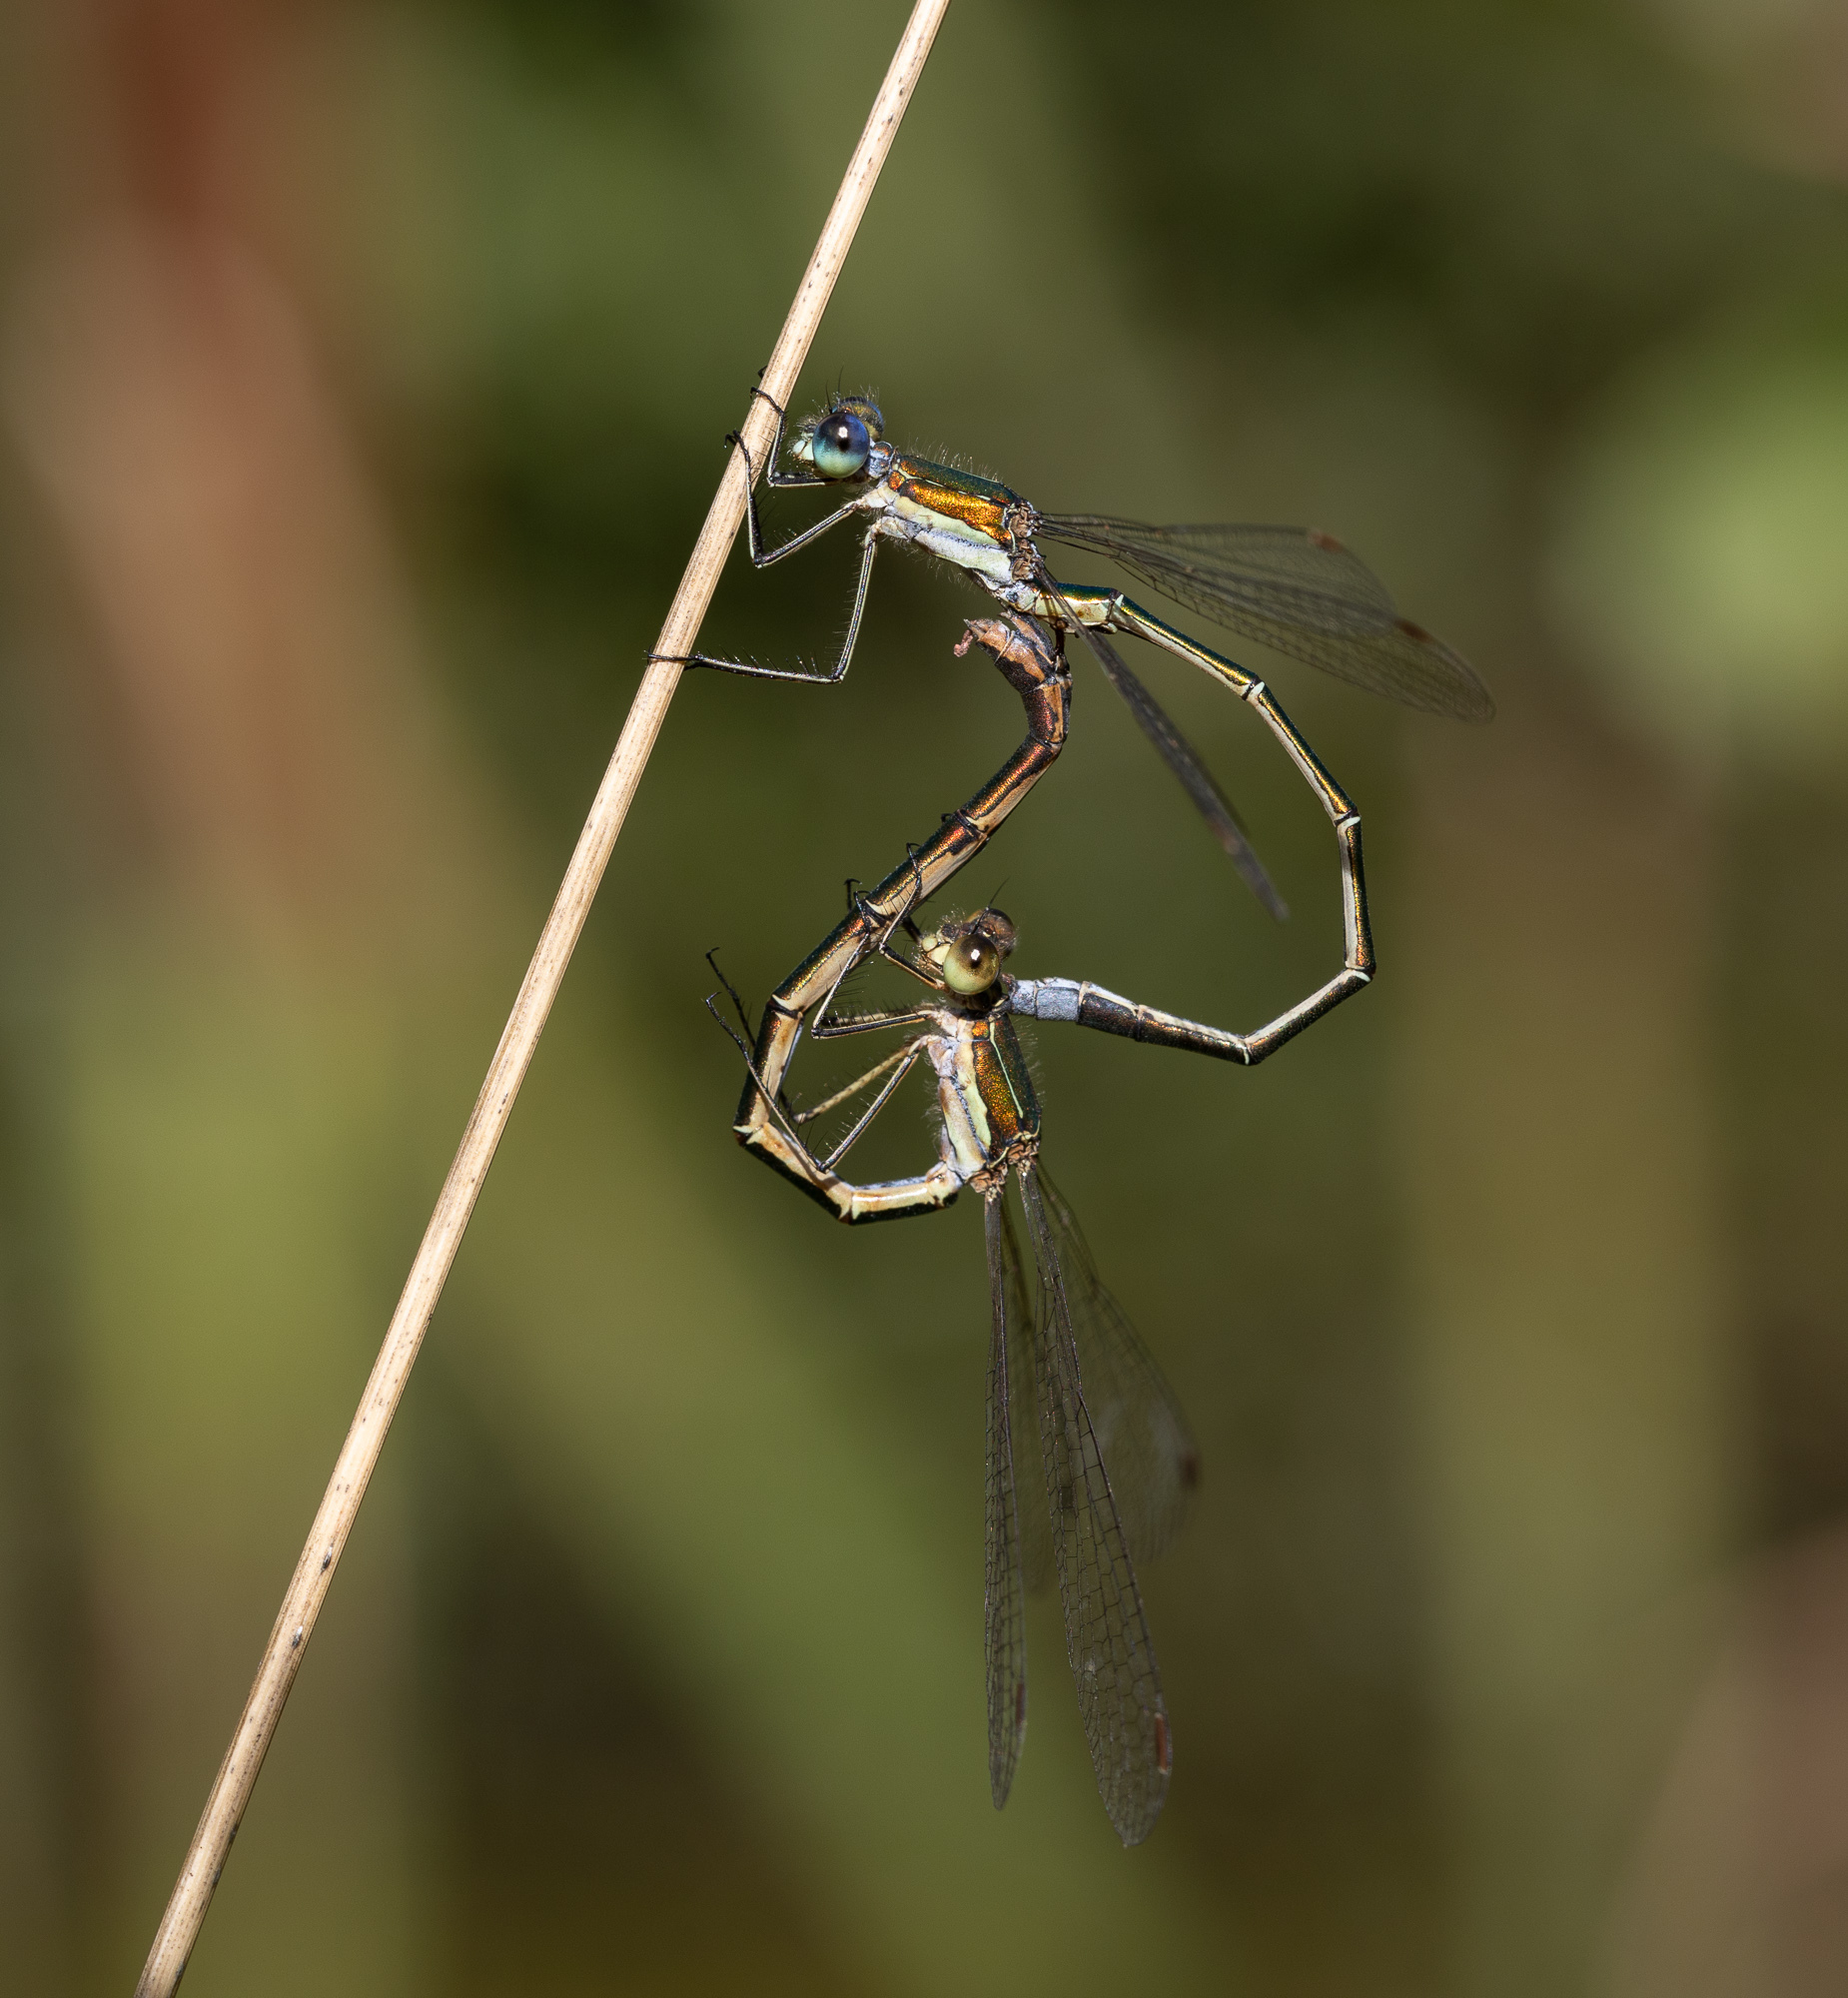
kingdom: Animalia
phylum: Arthropoda
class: Insecta
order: Odonata
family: Lestidae
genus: Lestes
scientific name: Lestes virens
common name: Small emerald spreadwing
